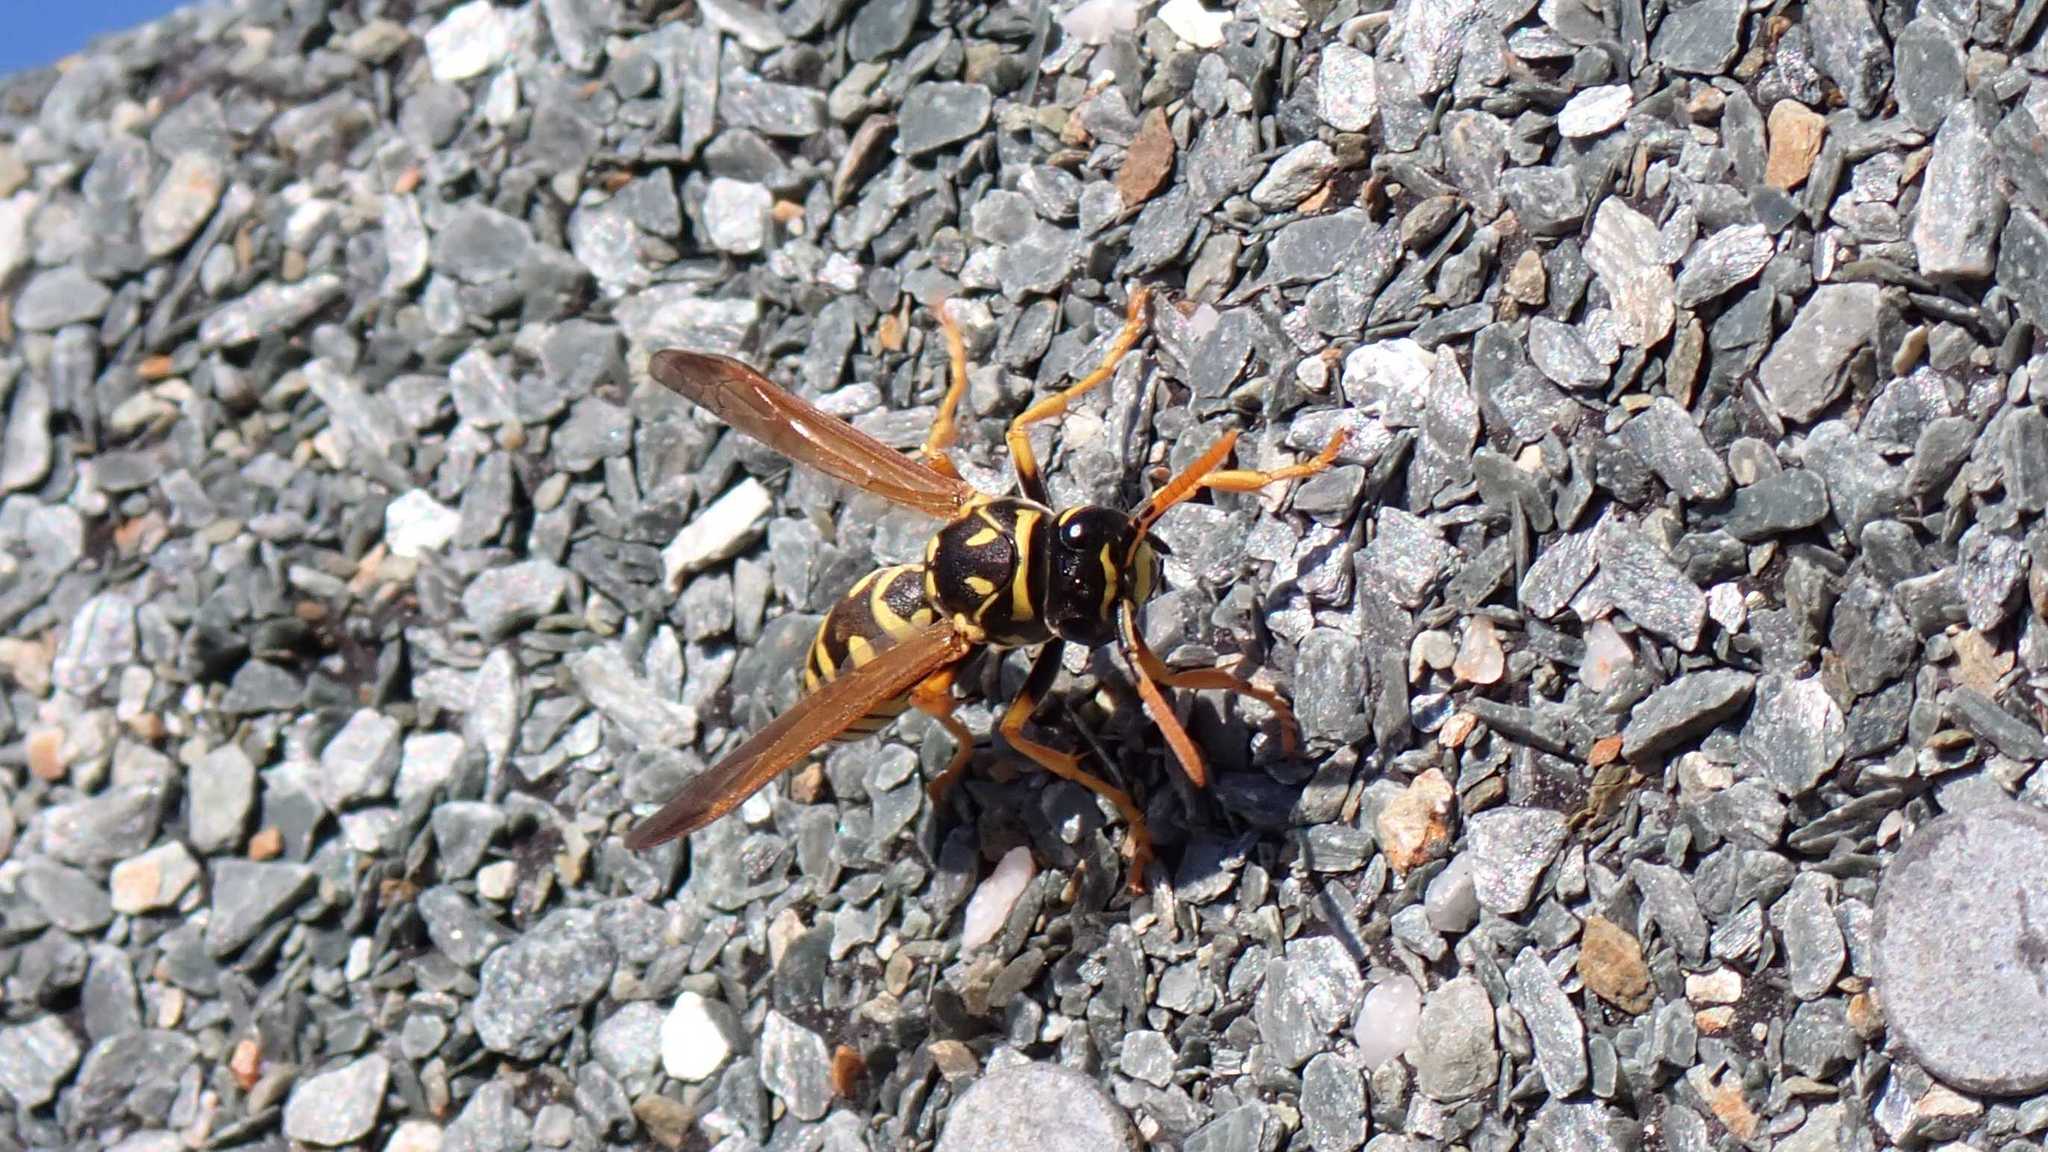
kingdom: Animalia
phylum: Arthropoda
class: Insecta
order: Hymenoptera
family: Eumenidae
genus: Polistes
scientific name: Polistes dominula
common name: Paper wasp
